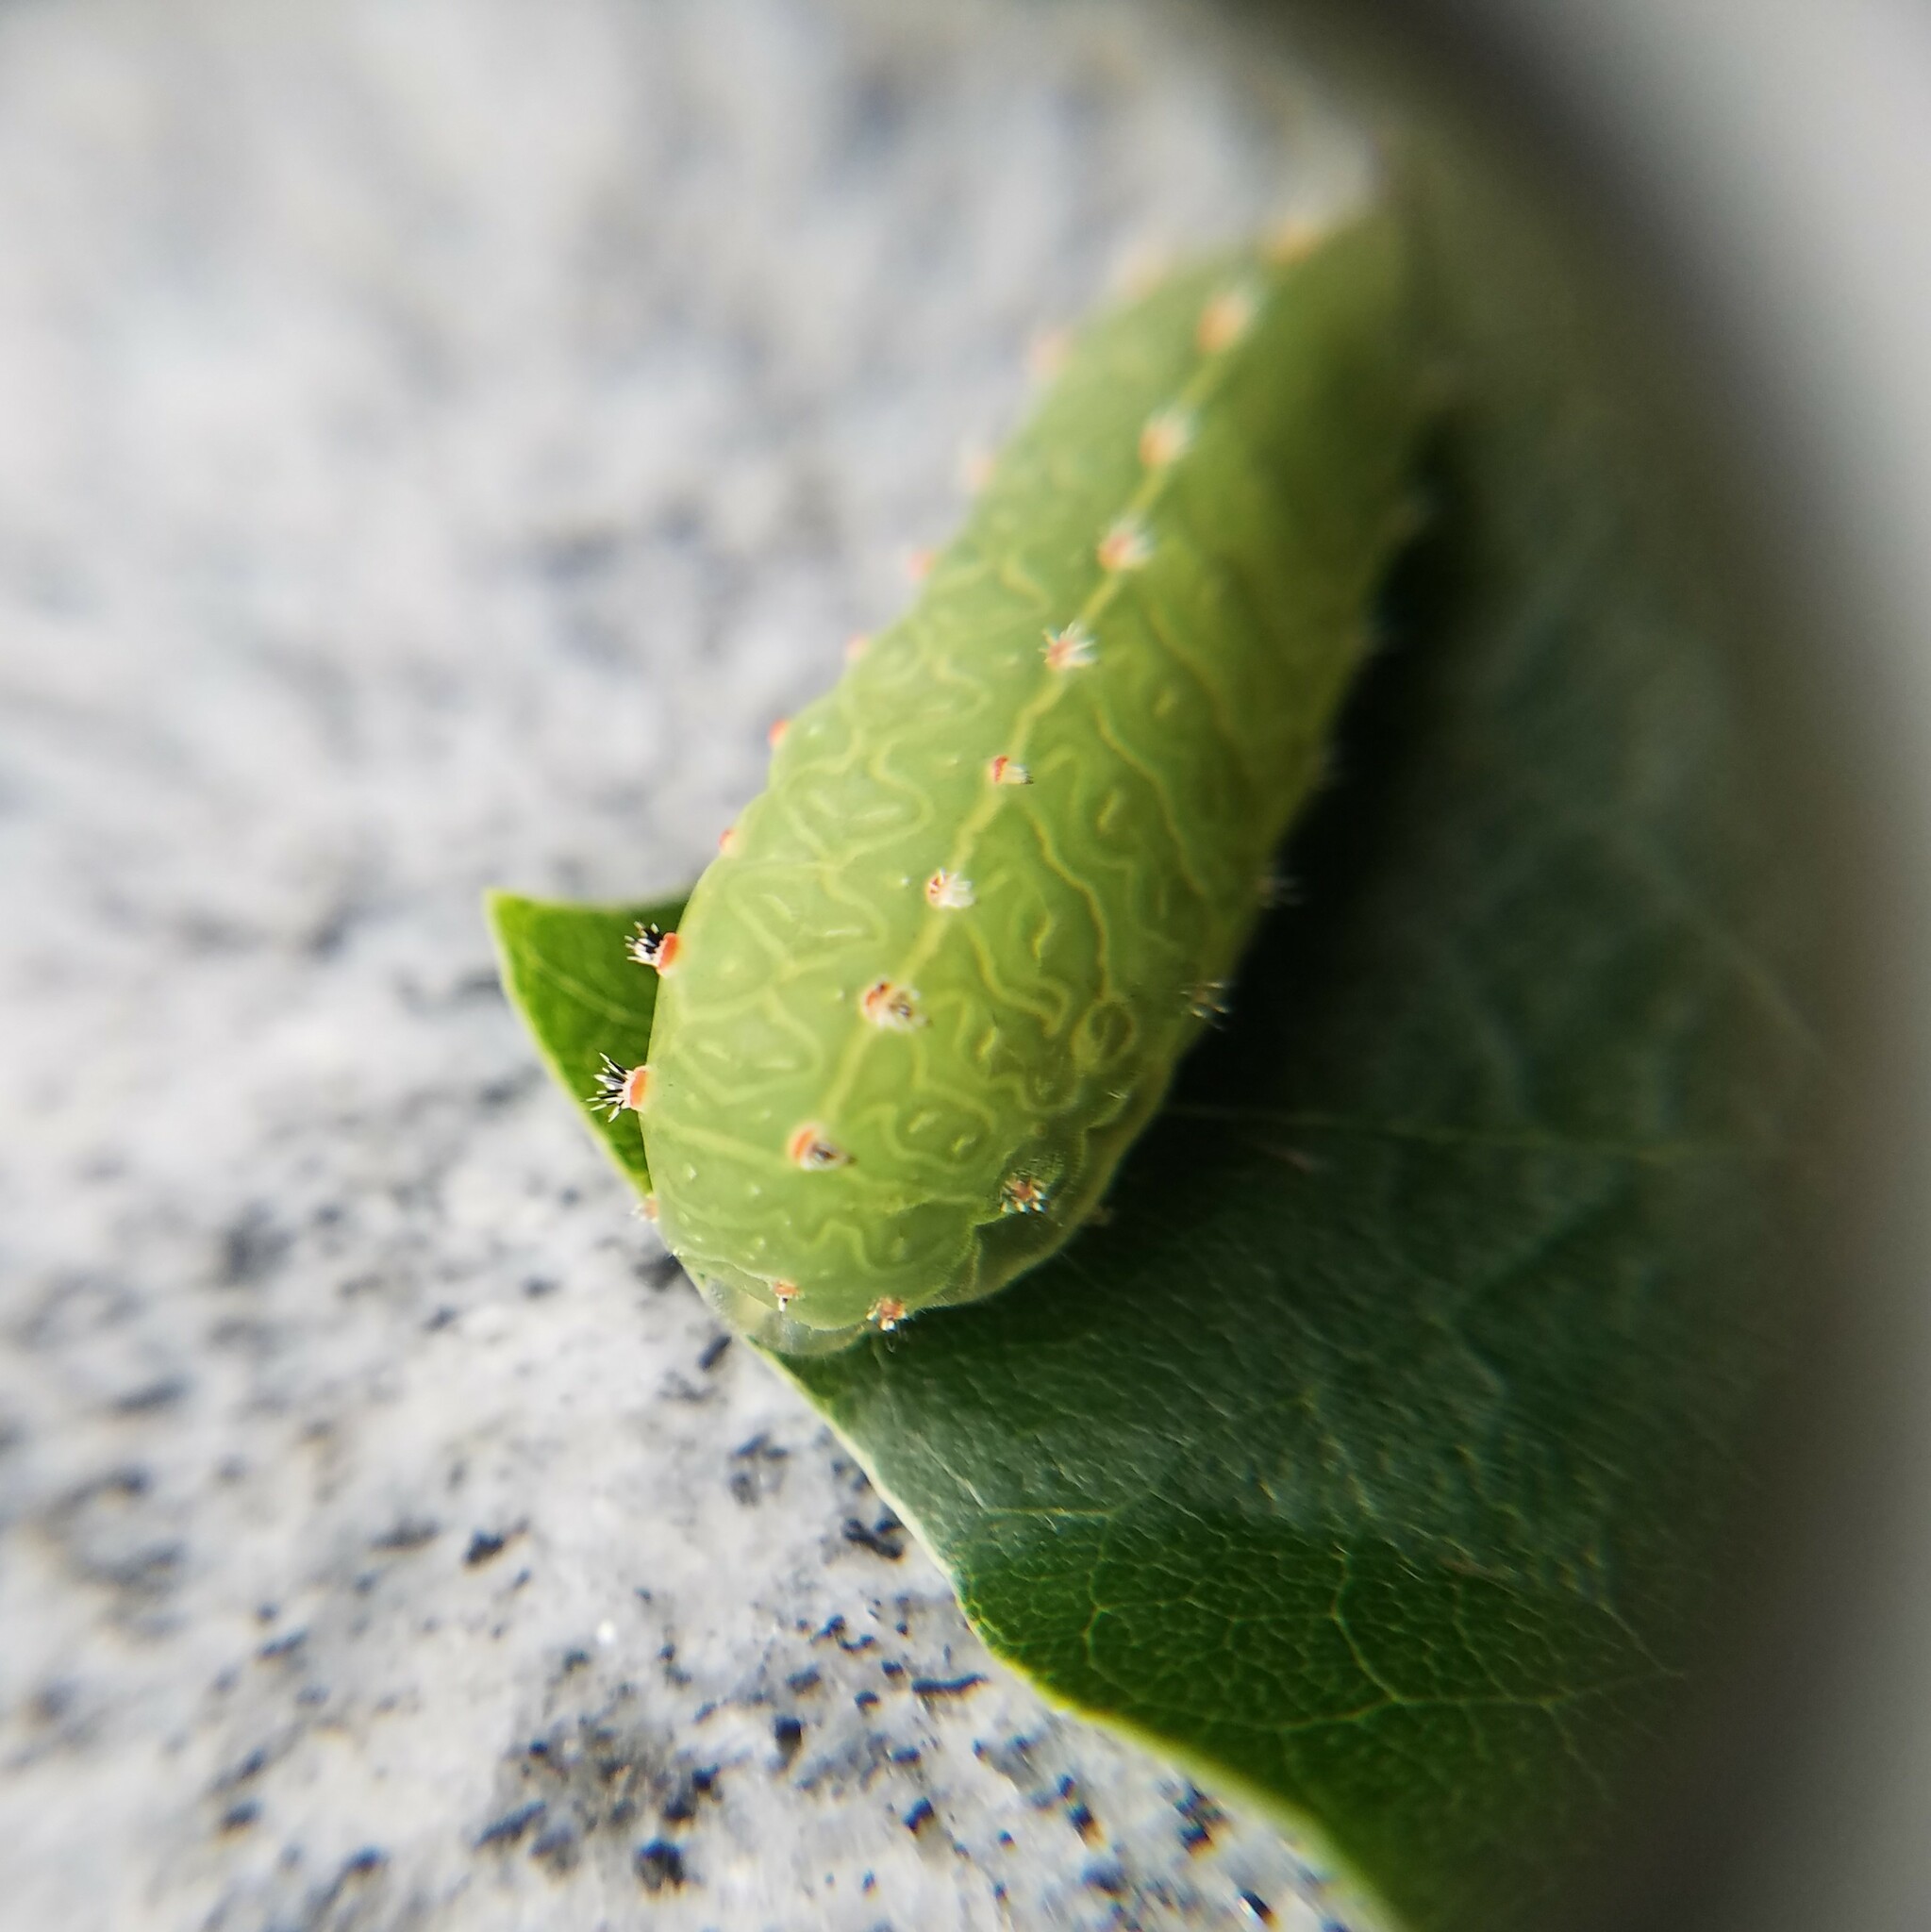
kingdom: Animalia
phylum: Arthropoda
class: Insecta
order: Lepidoptera
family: Limacodidae
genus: Natada
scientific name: Natada nasoni
